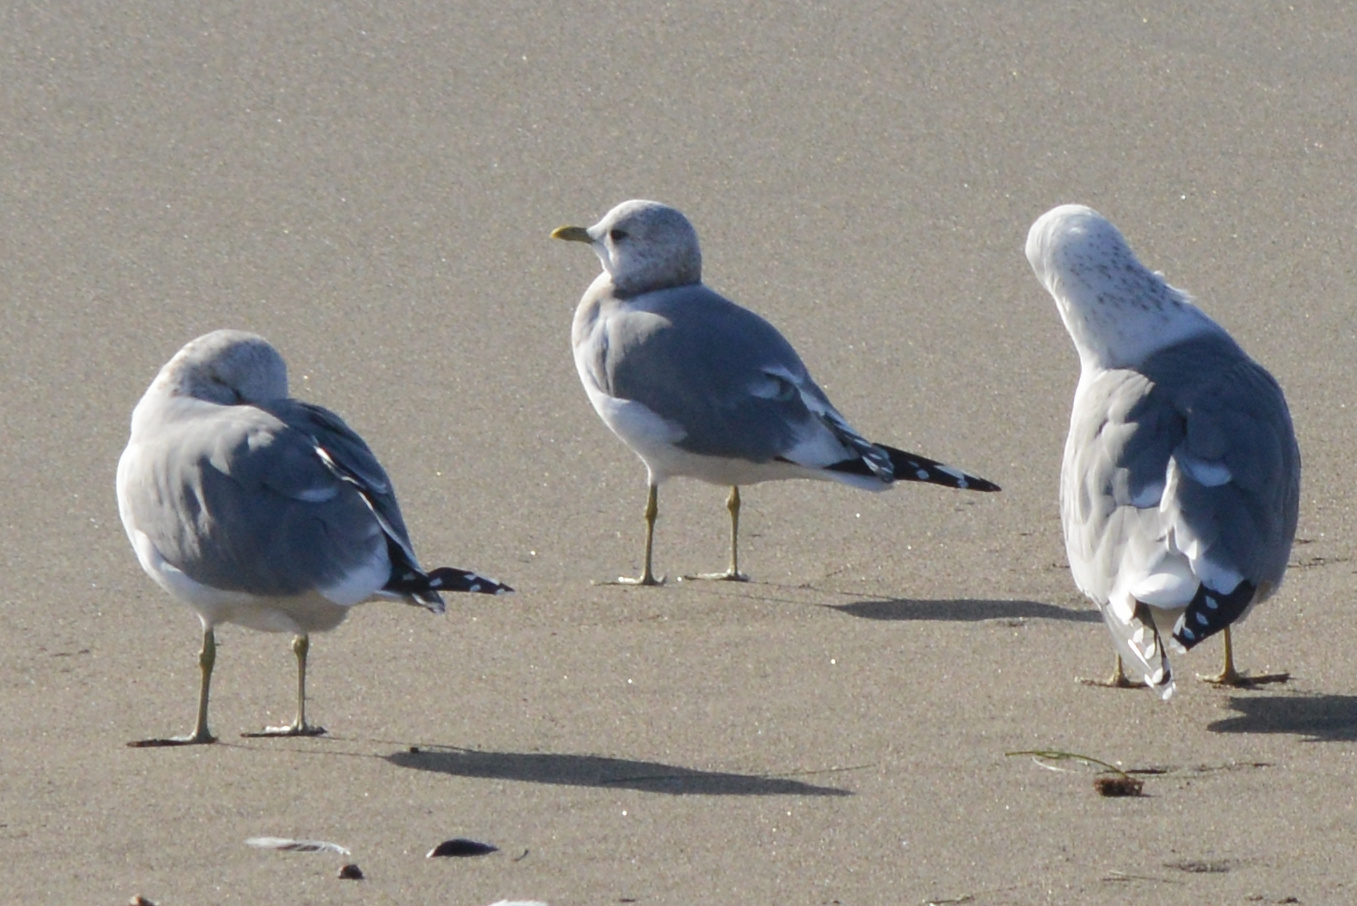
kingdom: Animalia
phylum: Chordata
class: Aves
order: Charadriiformes
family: Laridae
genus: Larus
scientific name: Larus brachyrhynchus
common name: Short-billed gull
